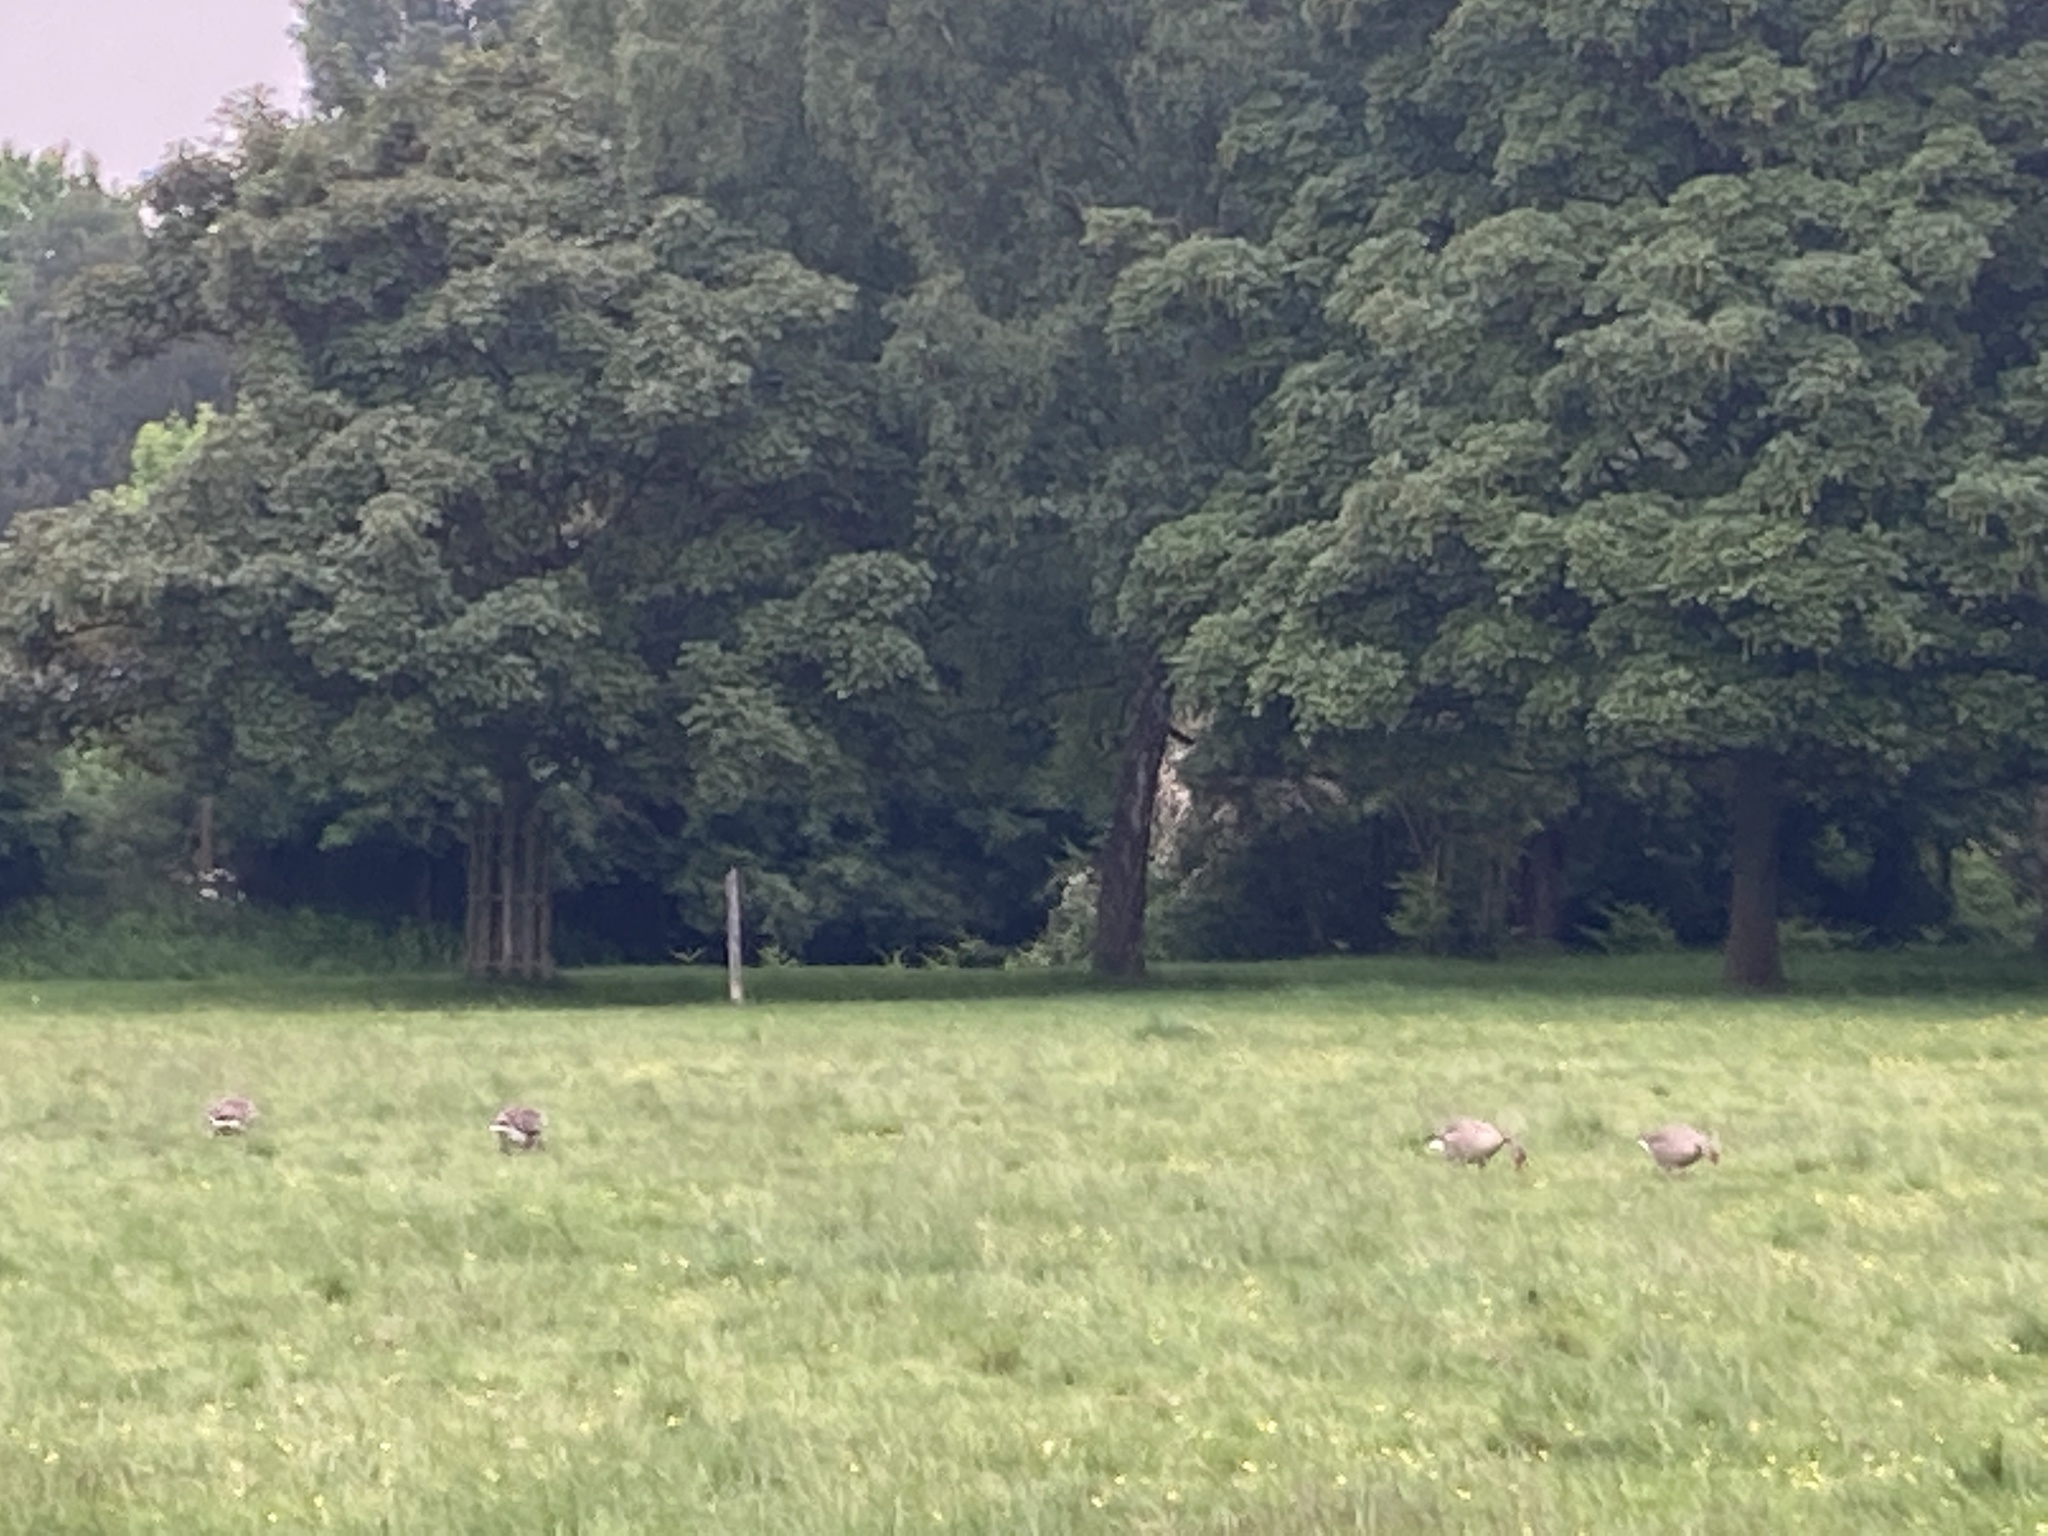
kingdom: Animalia
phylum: Chordata
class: Aves
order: Anseriformes
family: Anatidae
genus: Anser
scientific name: Anser anser
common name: Greylag goose
